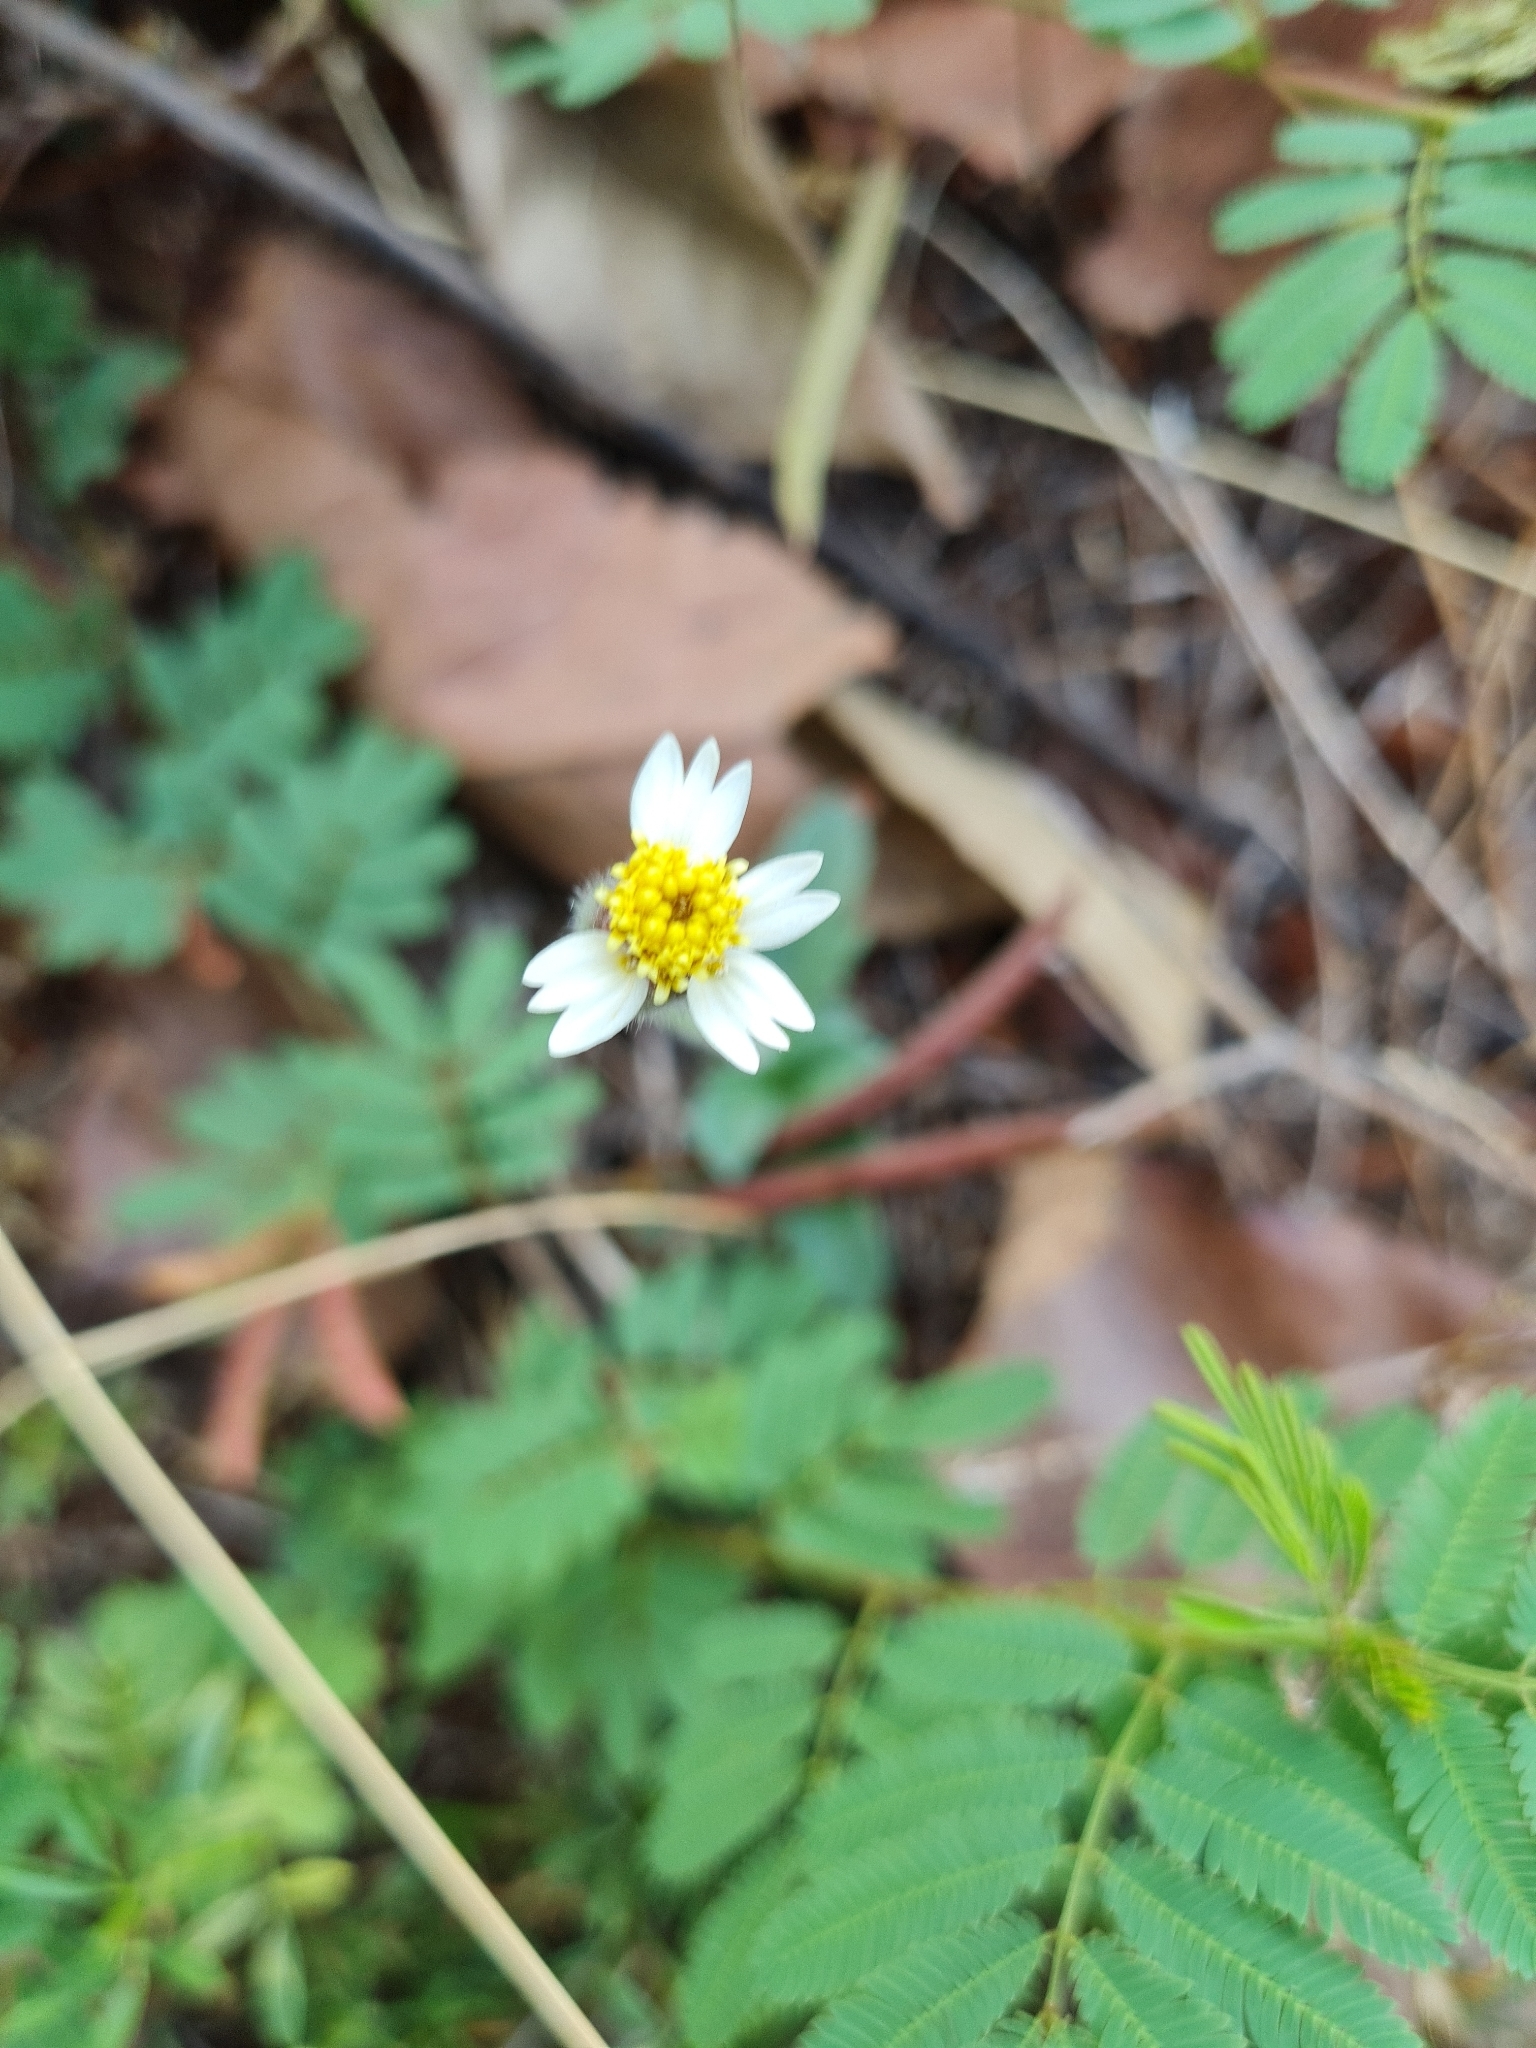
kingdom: Plantae
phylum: Tracheophyta
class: Magnoliopsida
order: Asterales
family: Asteraceae
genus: Tridax
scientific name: Tridax procumbens
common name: Coatbuttons
